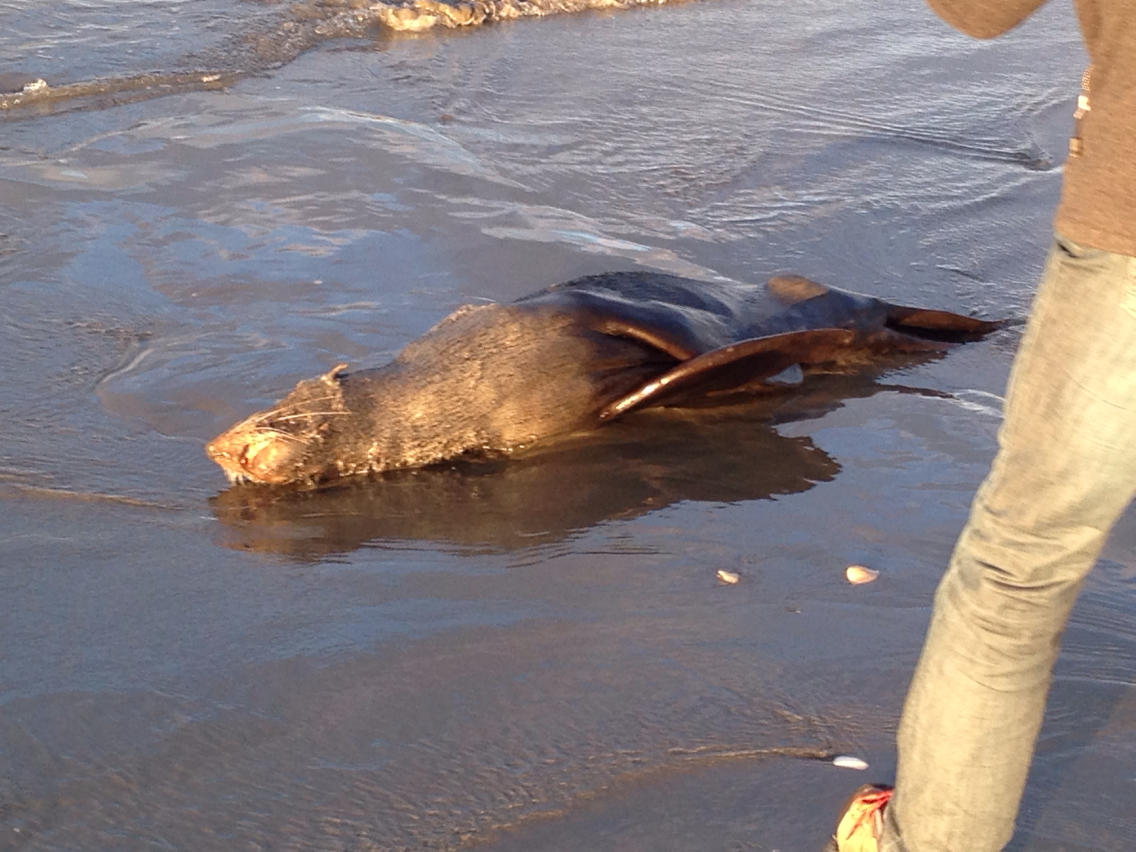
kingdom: Animalia
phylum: Chordata
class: Mammalia
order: Carnivora
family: Otariidae
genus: Arctocephalus
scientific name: Arctocephalus forsteri
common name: New zealand fur seal
